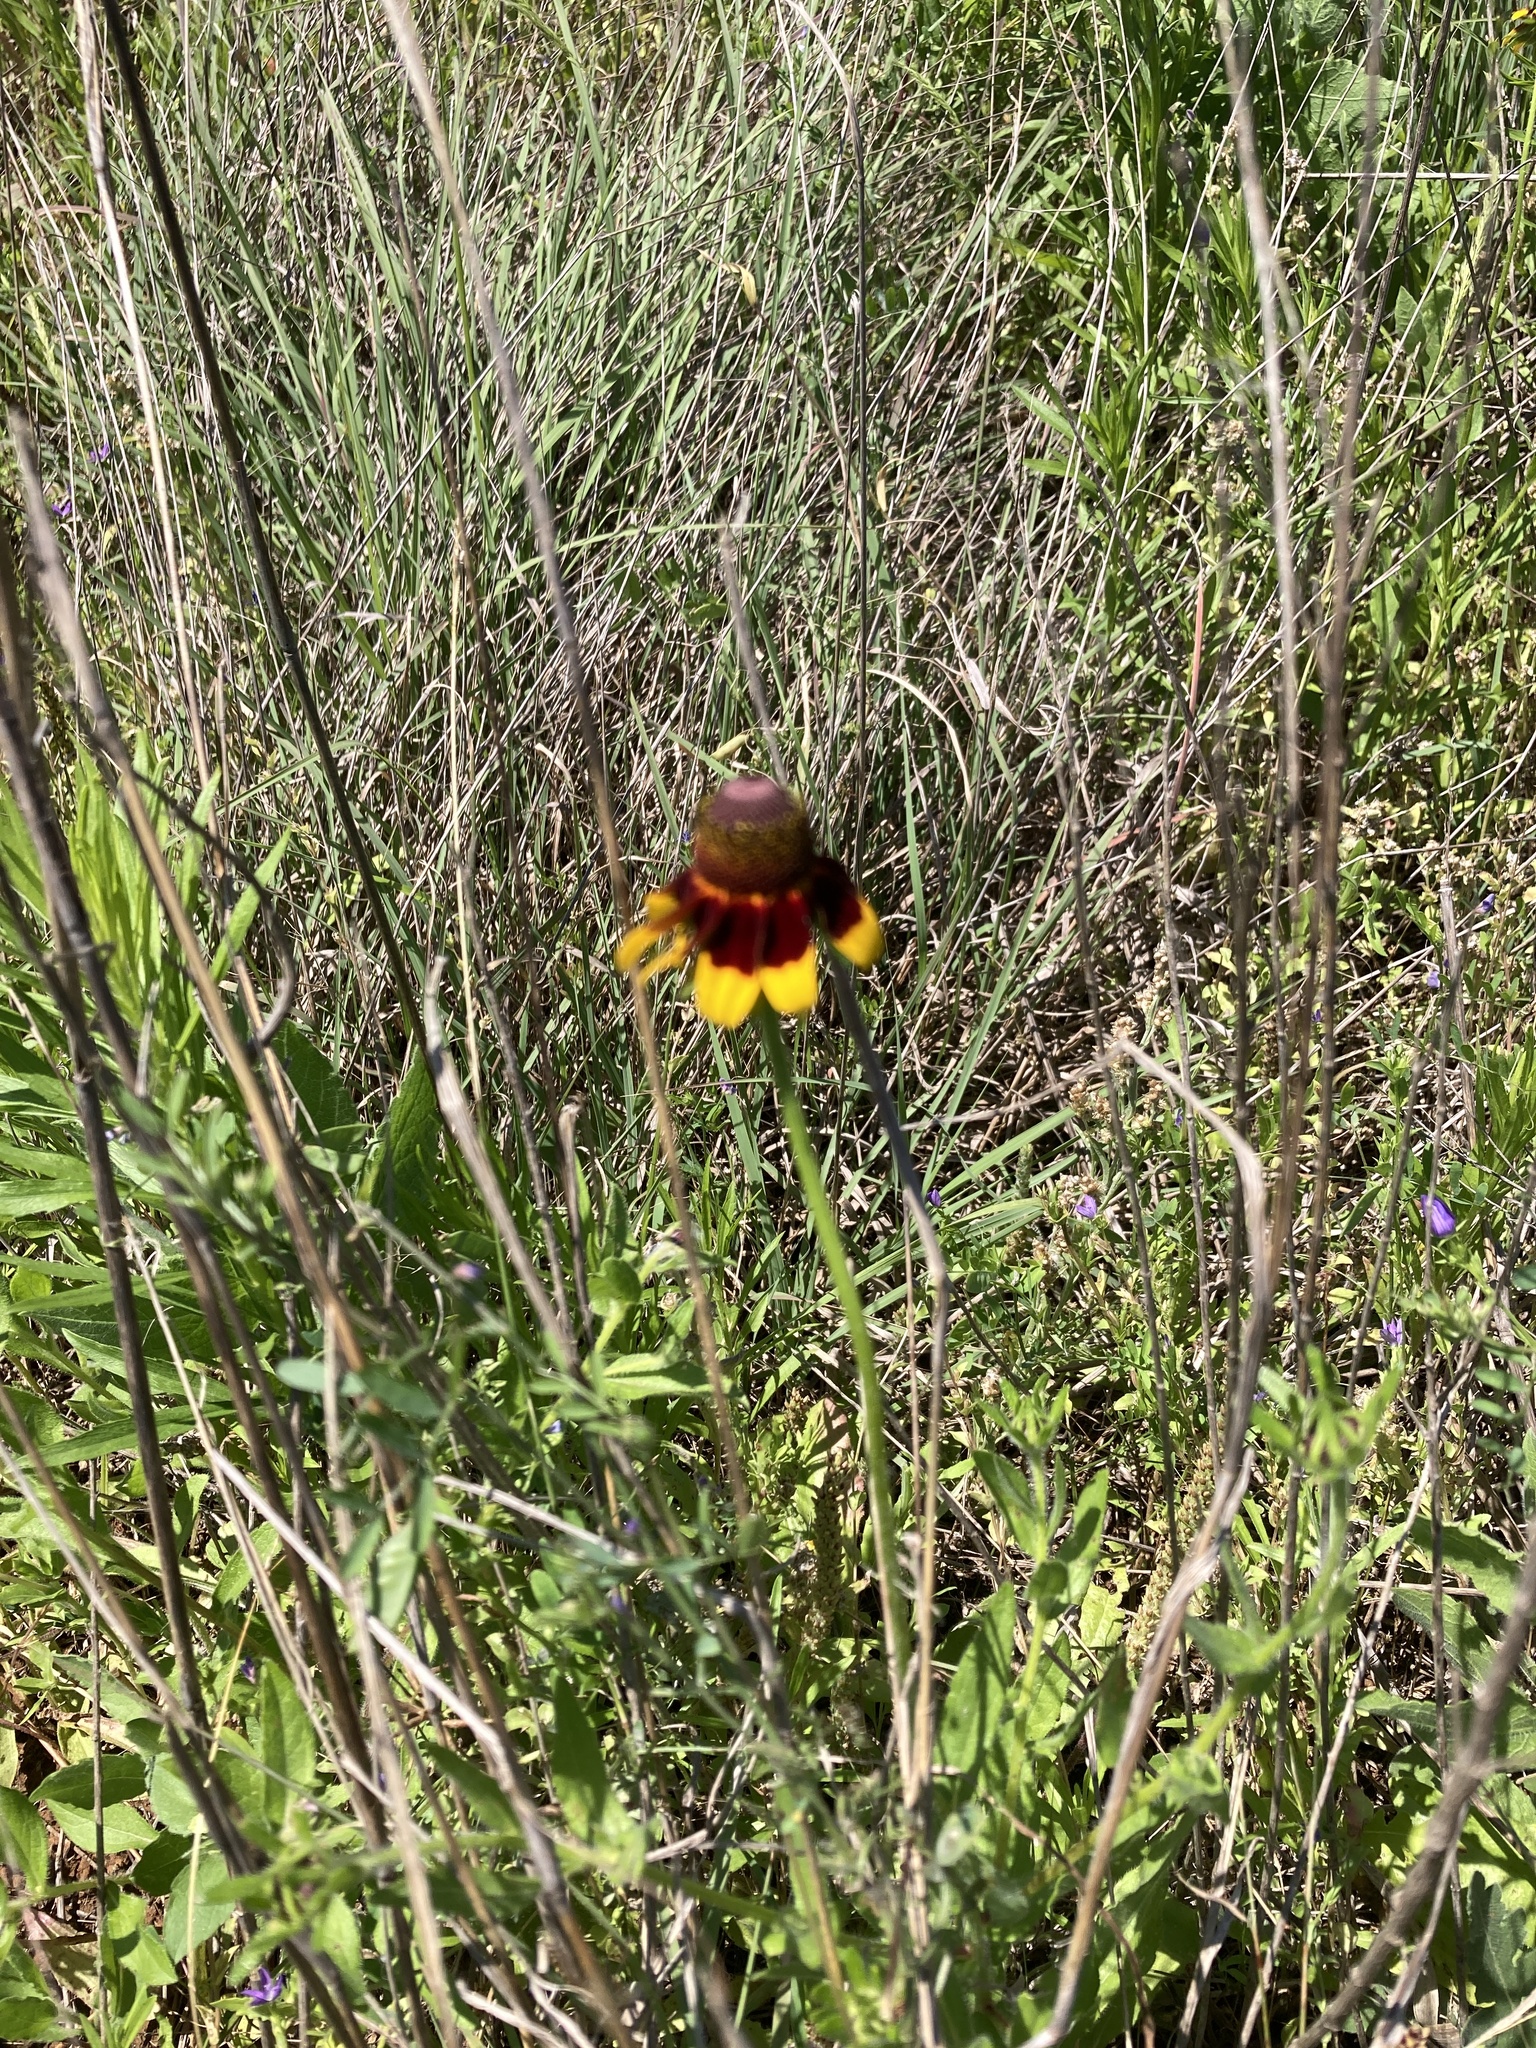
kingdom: Plantae
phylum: Tracheophyta
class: Magnoliopsida
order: Asterales
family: Asteraceae
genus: Rudbeckia
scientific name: Rudbeckia hirta
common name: Black-eyed-susan
